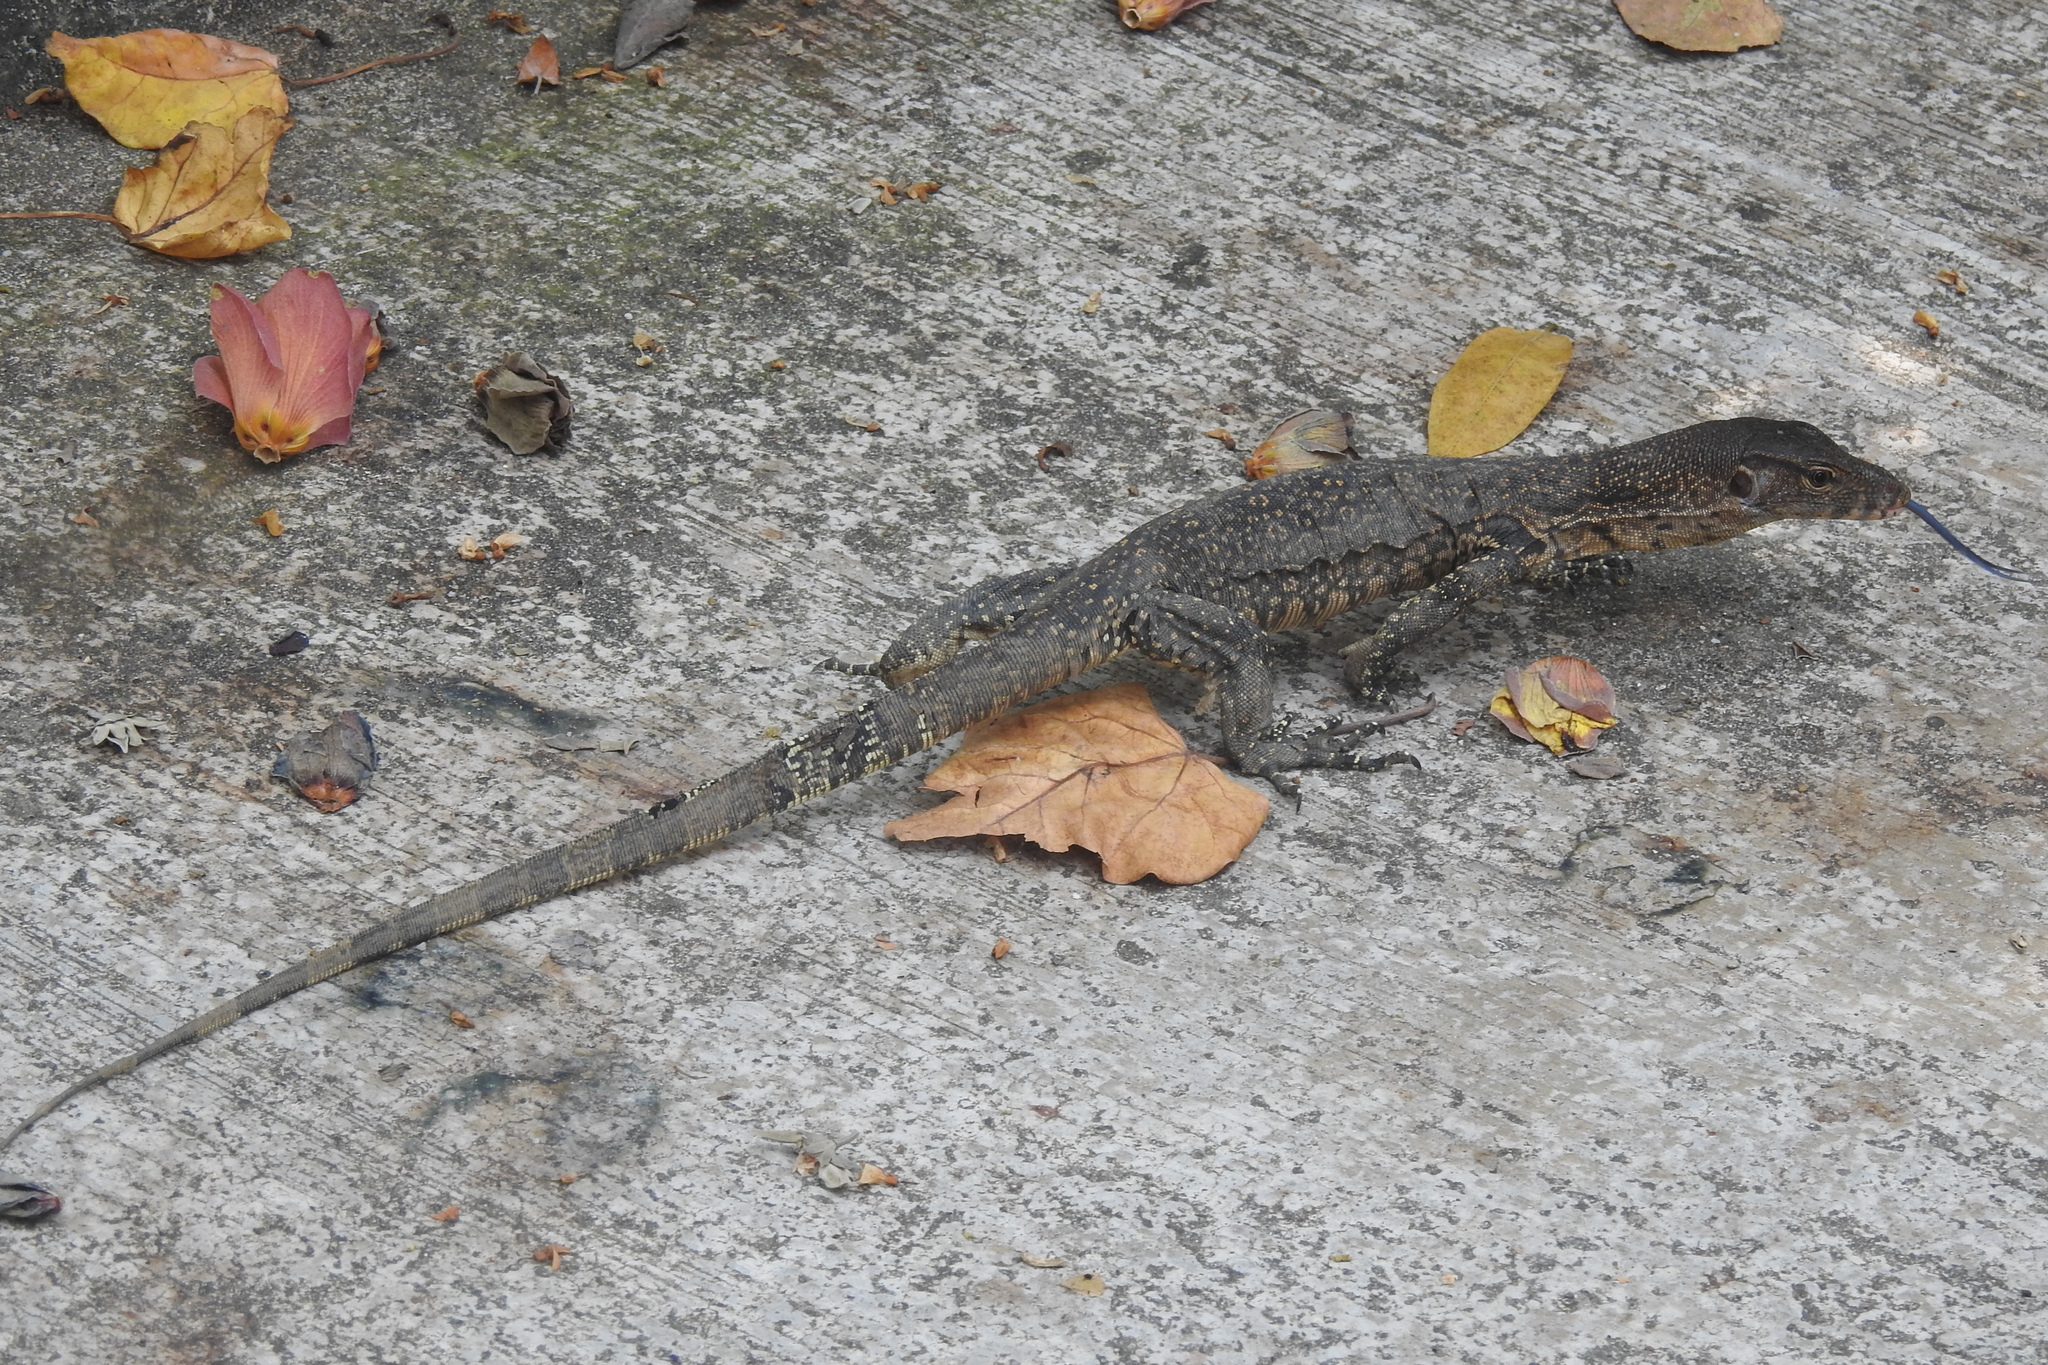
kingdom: Animalia
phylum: Chordata
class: Squamata
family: Varanidae
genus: Varanus
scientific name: Varanus salvator
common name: Common water monitor
